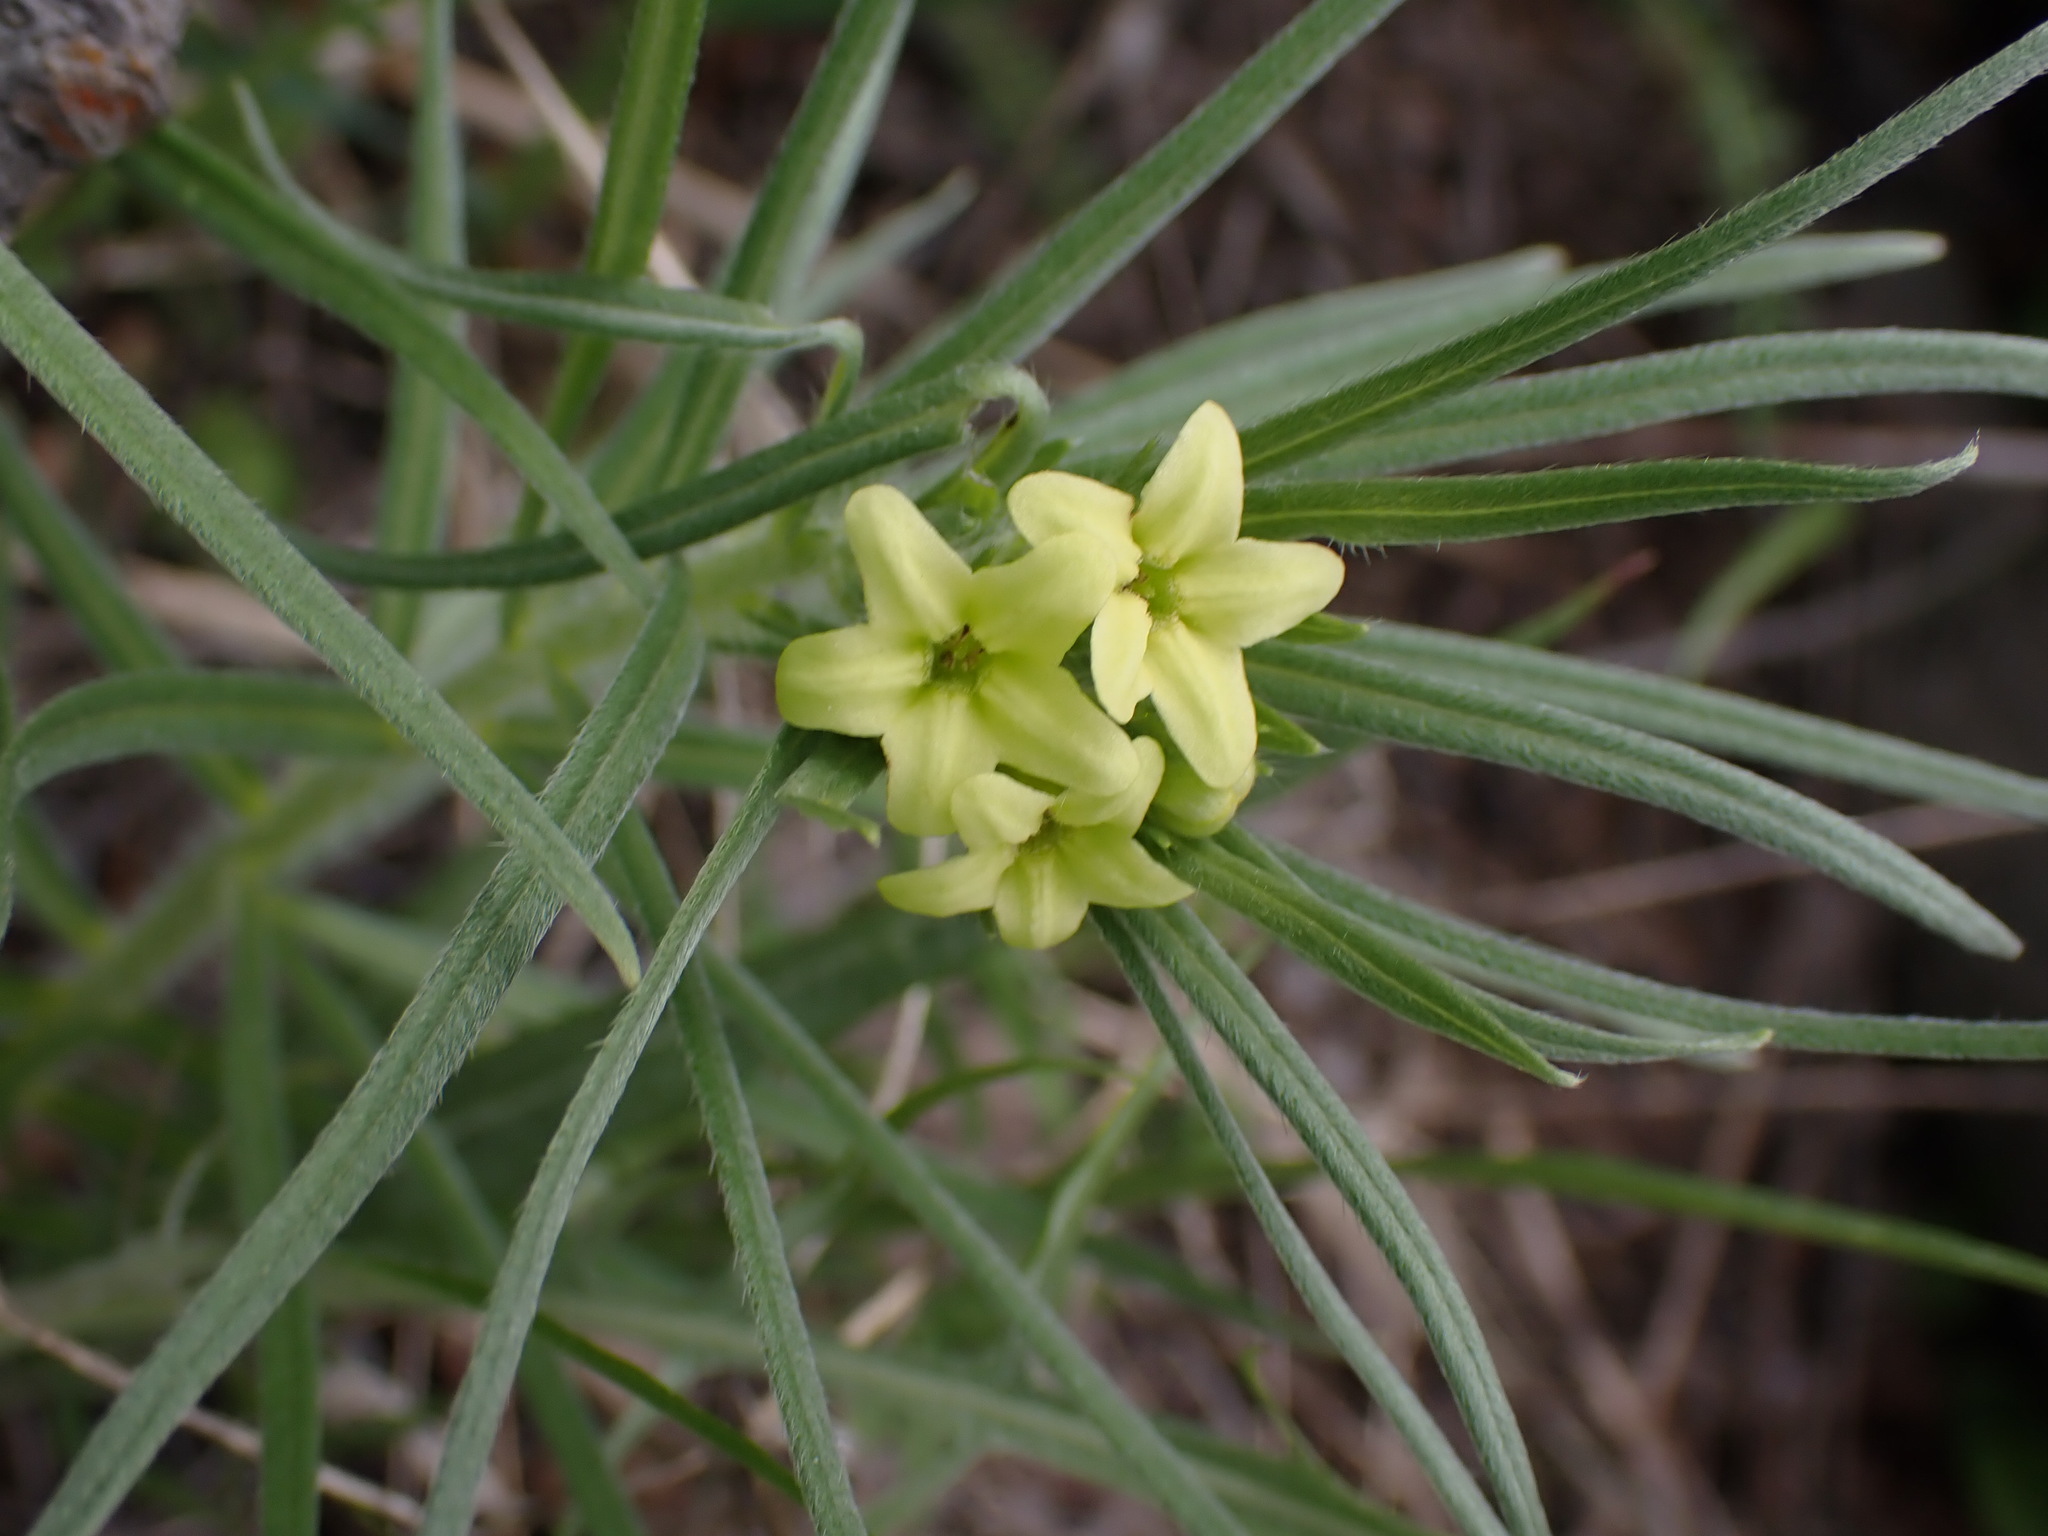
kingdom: Plantae
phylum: Tracheophyta
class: Magnoliopsida
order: Boraginales
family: Boraginaceae
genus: Lithospermum
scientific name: Lithospermum ruderale
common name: Western gromwell
